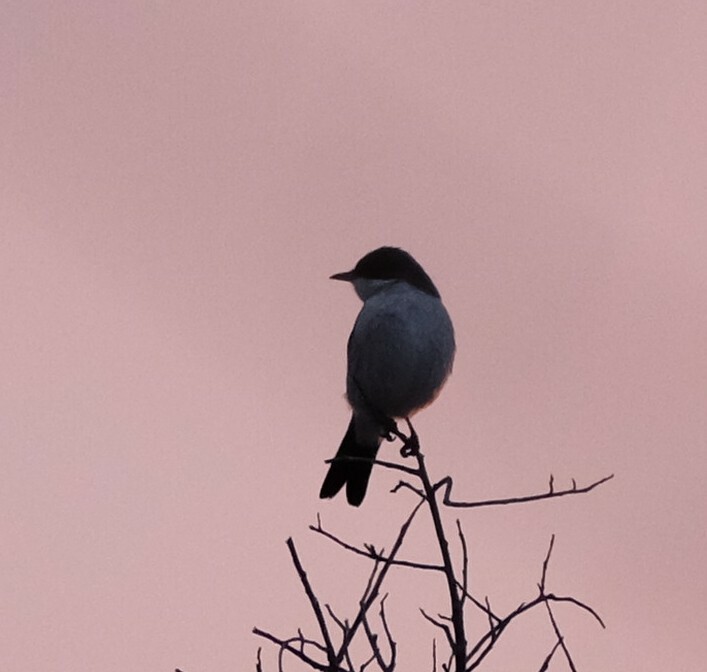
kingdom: Animalia
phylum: Chordata
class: Aves
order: Passeriformes
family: Muscicapidae
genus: Sigelus
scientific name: Sigelus silens
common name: Fiscal flycatcher
